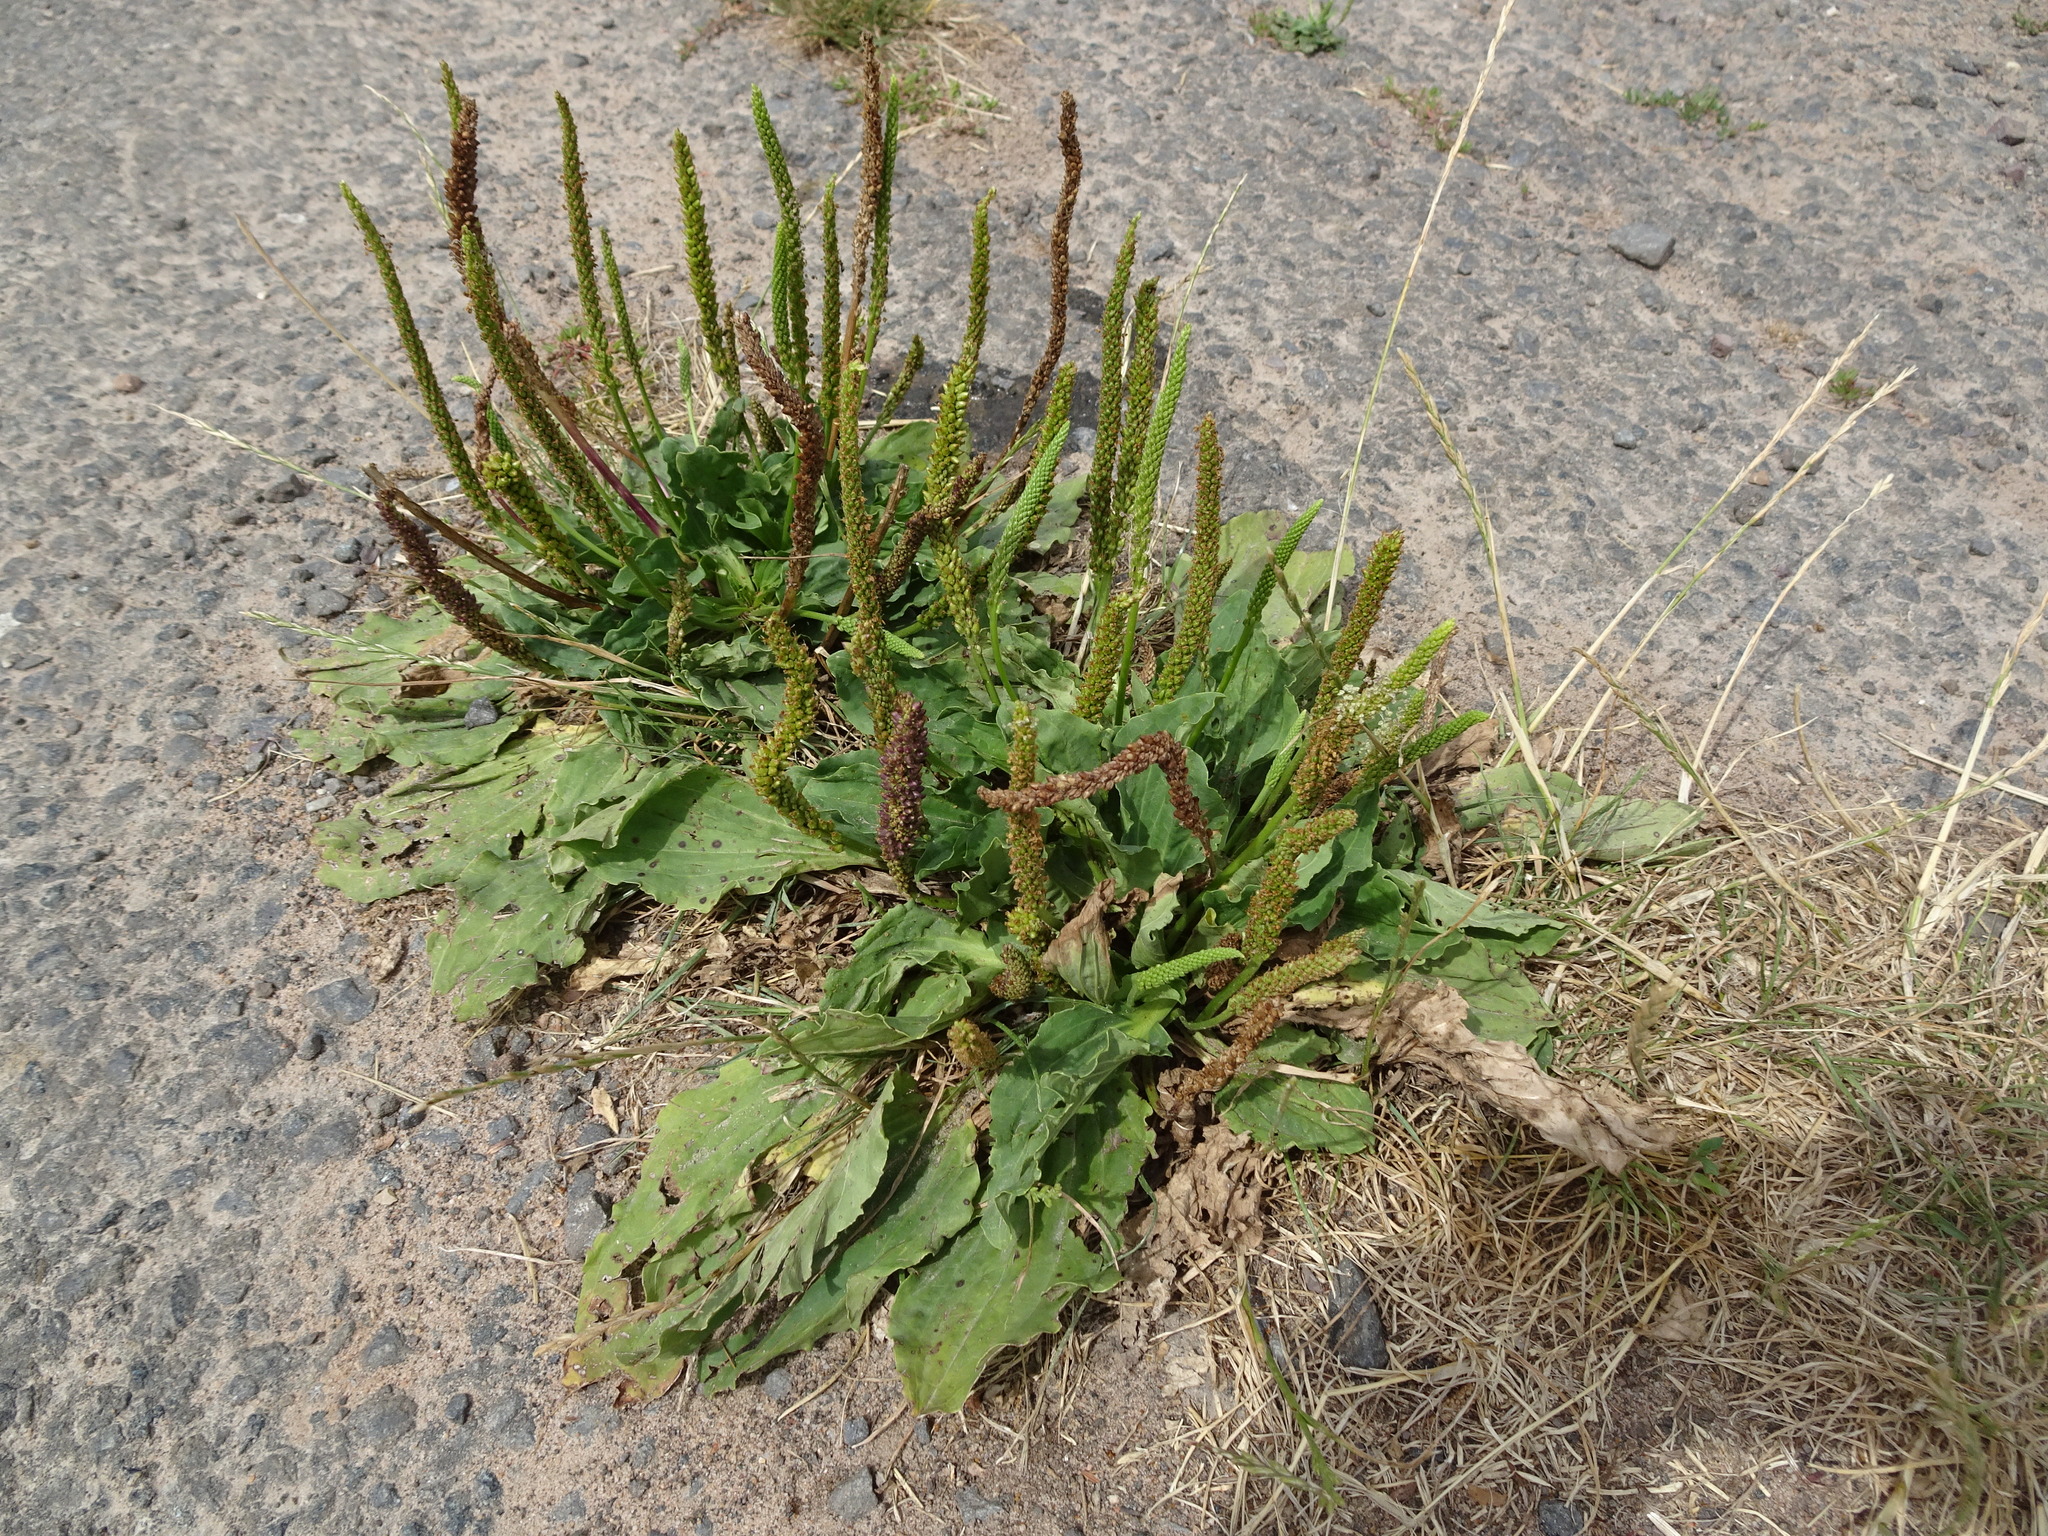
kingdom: Plantae
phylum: Tracheophyta
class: Magnoliopsida
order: Lamiales
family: Plantaginaceae
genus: Plantago
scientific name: Plantago major
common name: Common plantain
